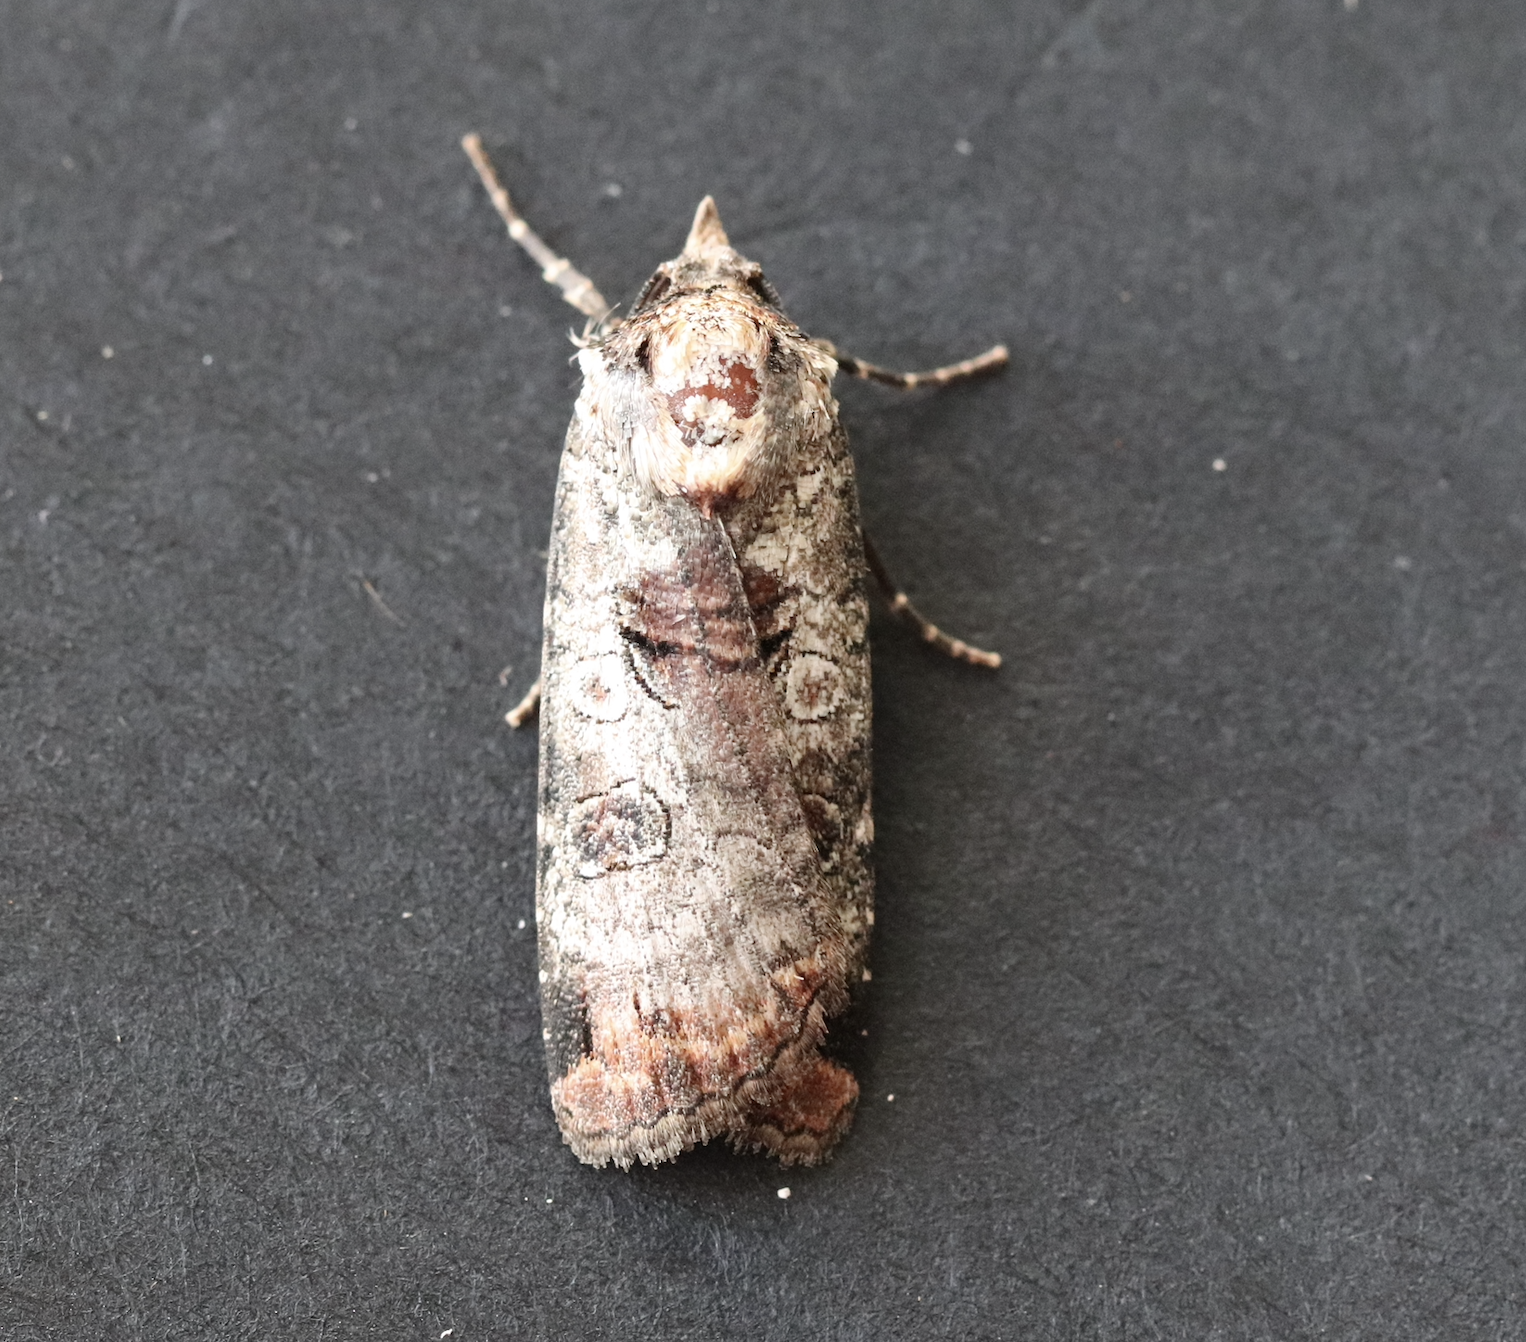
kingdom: Animalia
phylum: Arthropoda
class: Insecta
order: Lepidoptera
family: Noctuidae
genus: Epilecta
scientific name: Epilecta linogrisea
